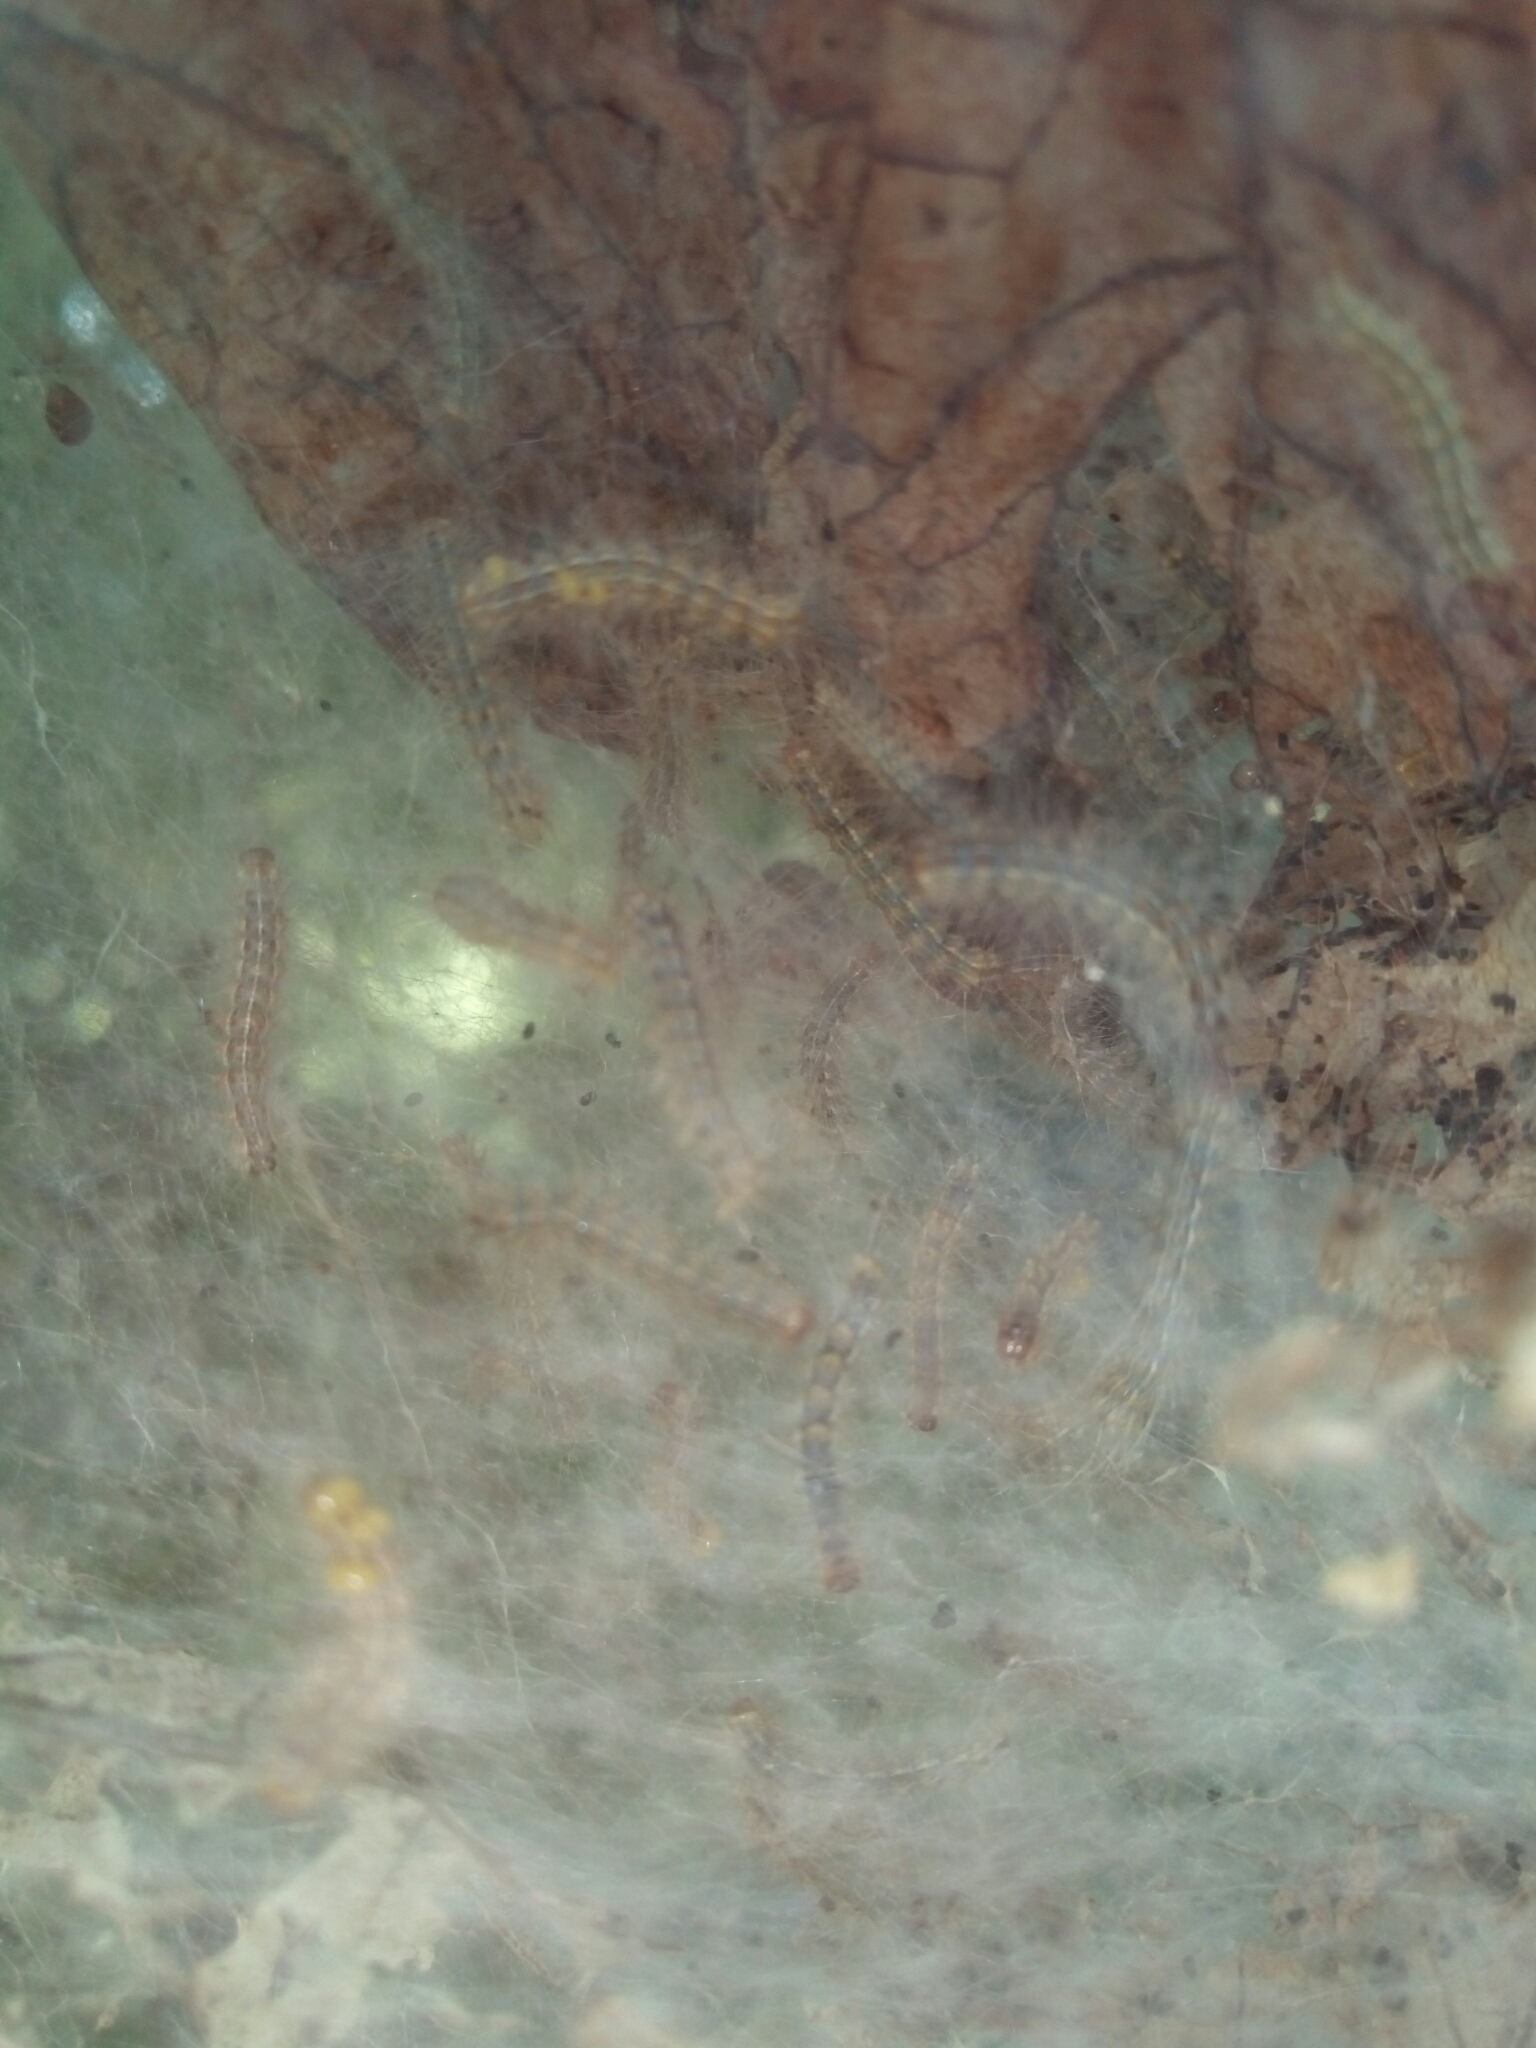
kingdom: Animalia
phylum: Arthropoda
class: Insecta
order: Lepidoptera
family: Erebidae
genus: Hyphantria
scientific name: Hyphantria cunea
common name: American white moth
